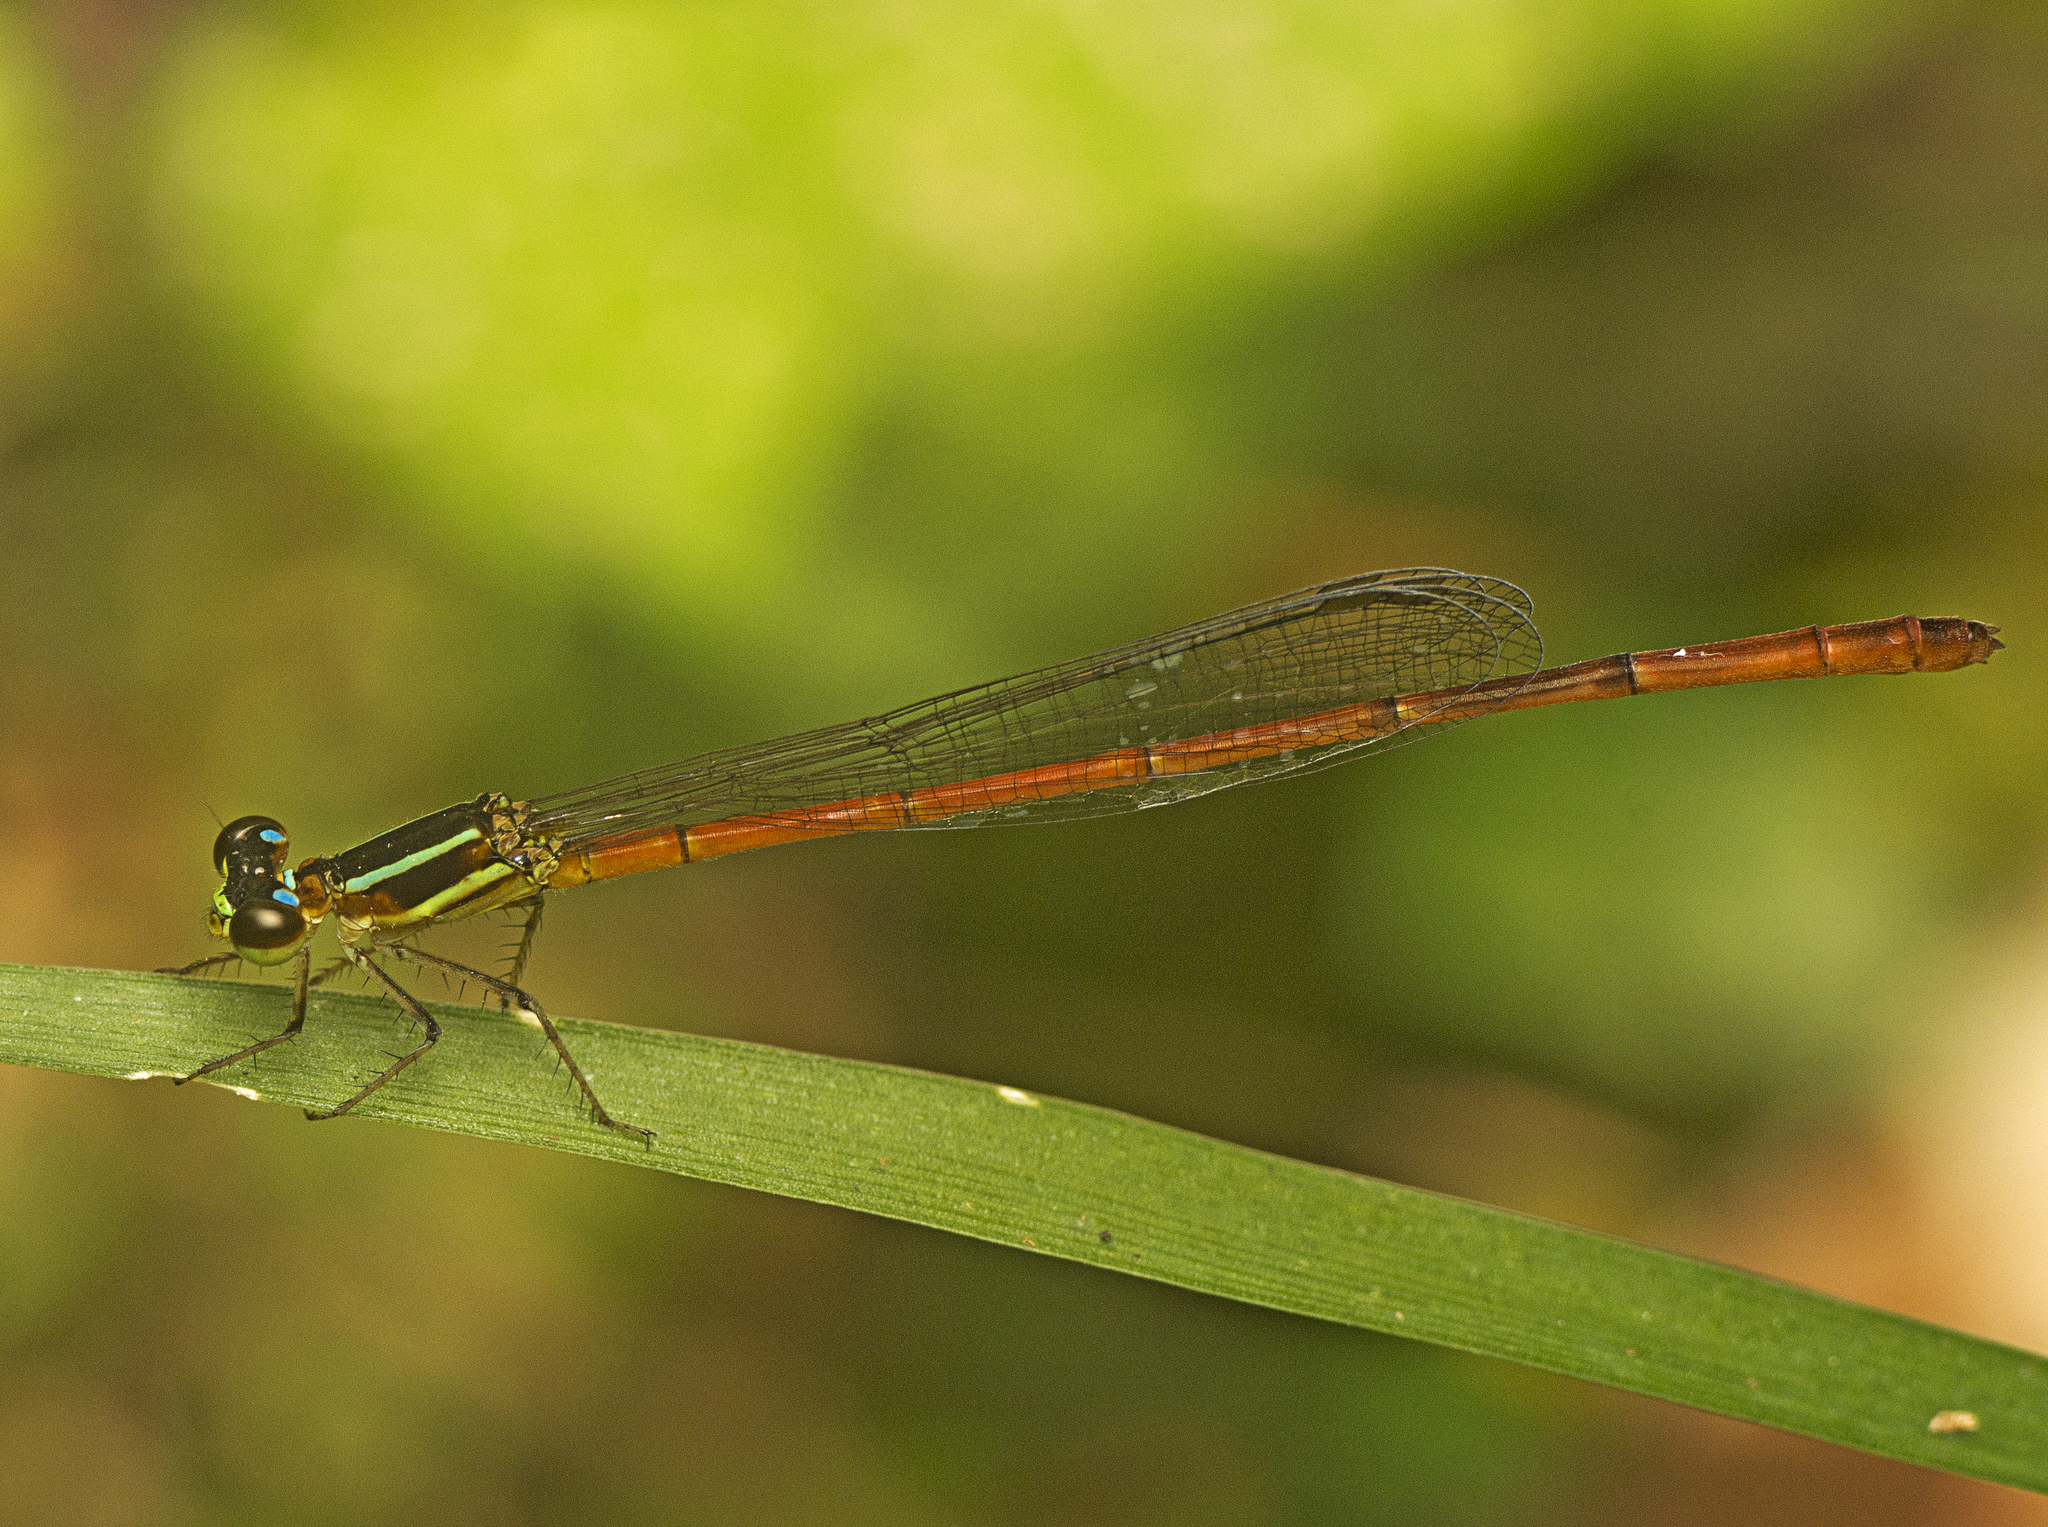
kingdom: Animalia
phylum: Arthropoda
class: Insecta
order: Odonata
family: Coenagrionidae
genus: Argiocnemis
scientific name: Argiocnemis rubescens
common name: Red-tipped shadefly
